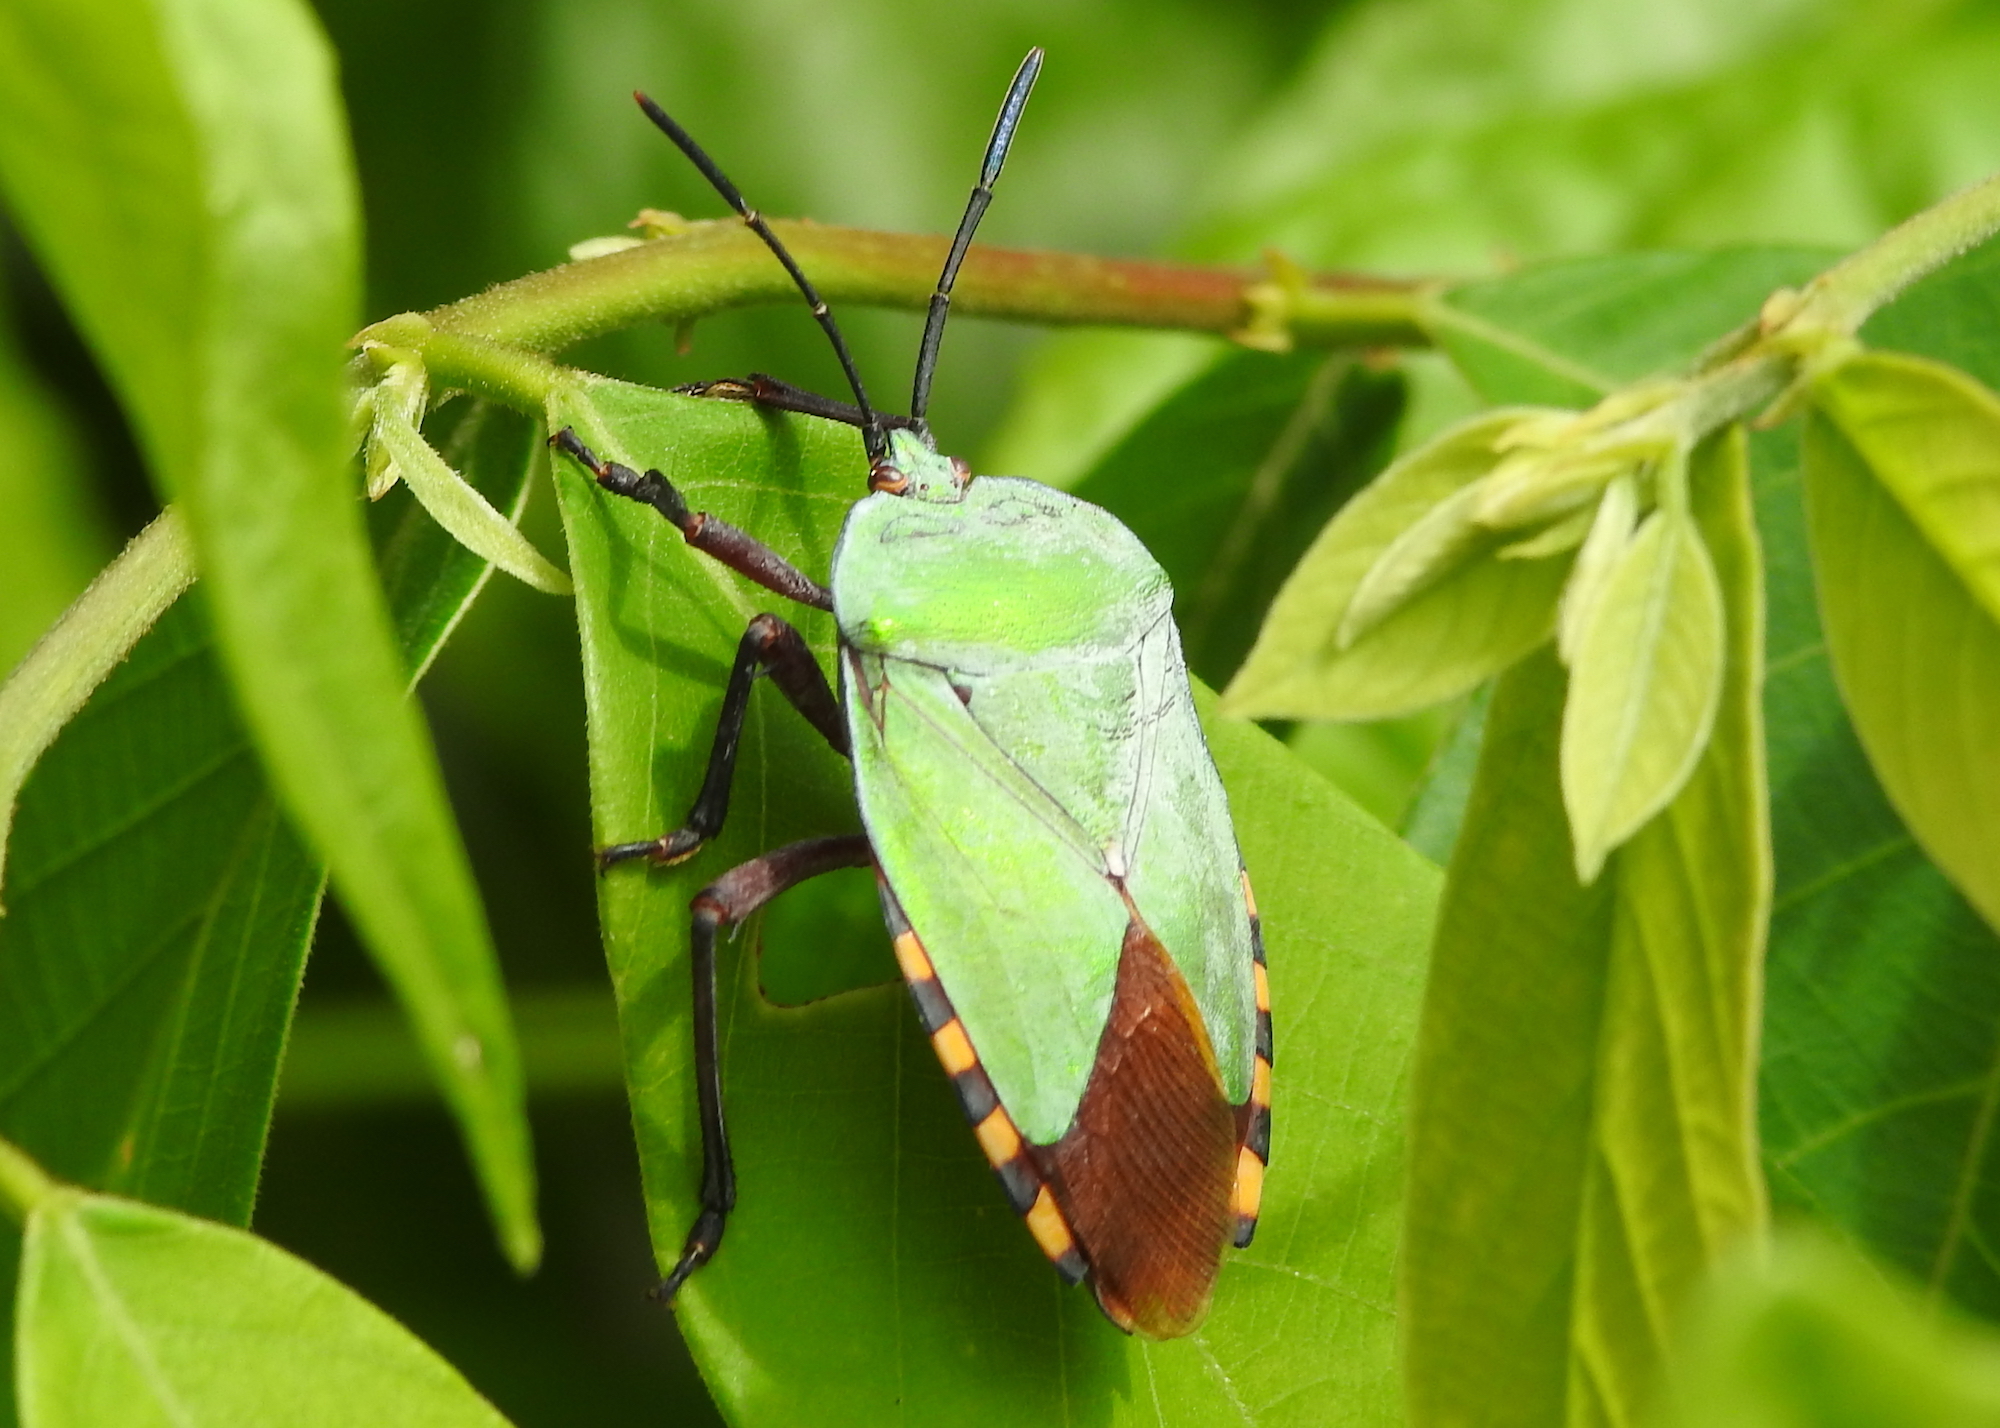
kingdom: Animalia
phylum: Arthropoda
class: Insecta
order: Hemiptera
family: Tessaratomidae
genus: Pycanum
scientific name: Pycanum alternatum
